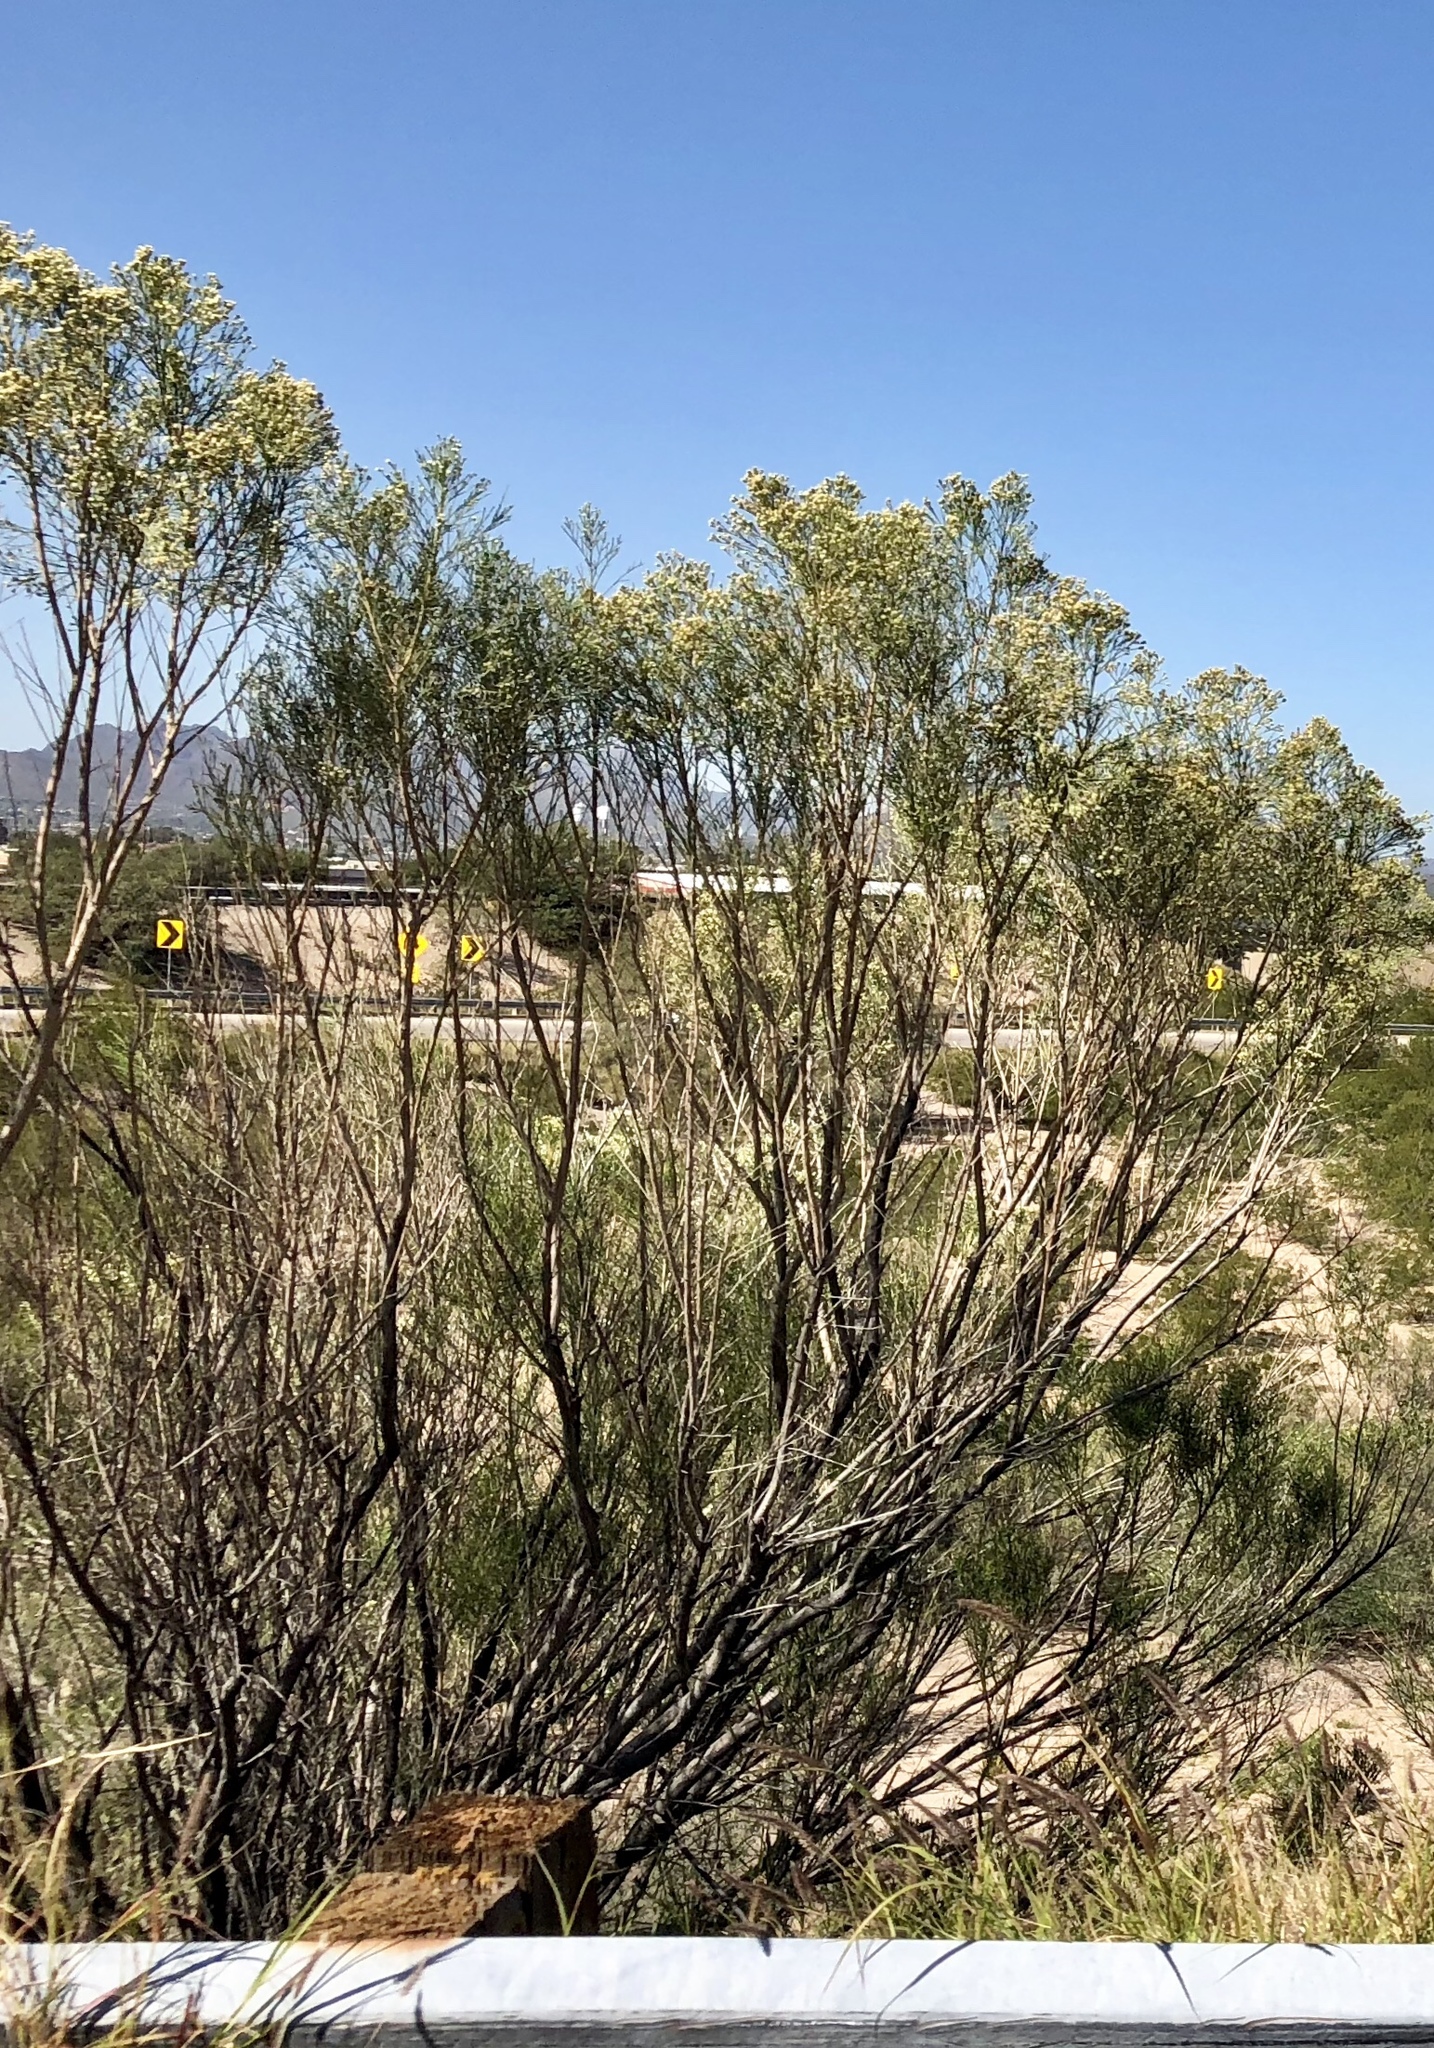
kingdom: Plantae
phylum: Tracheophyta
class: Magnoliopsida
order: Asterales
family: Asteraceae
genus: Baccharis
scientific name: Baccharis sarothroides
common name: Desert-broom
